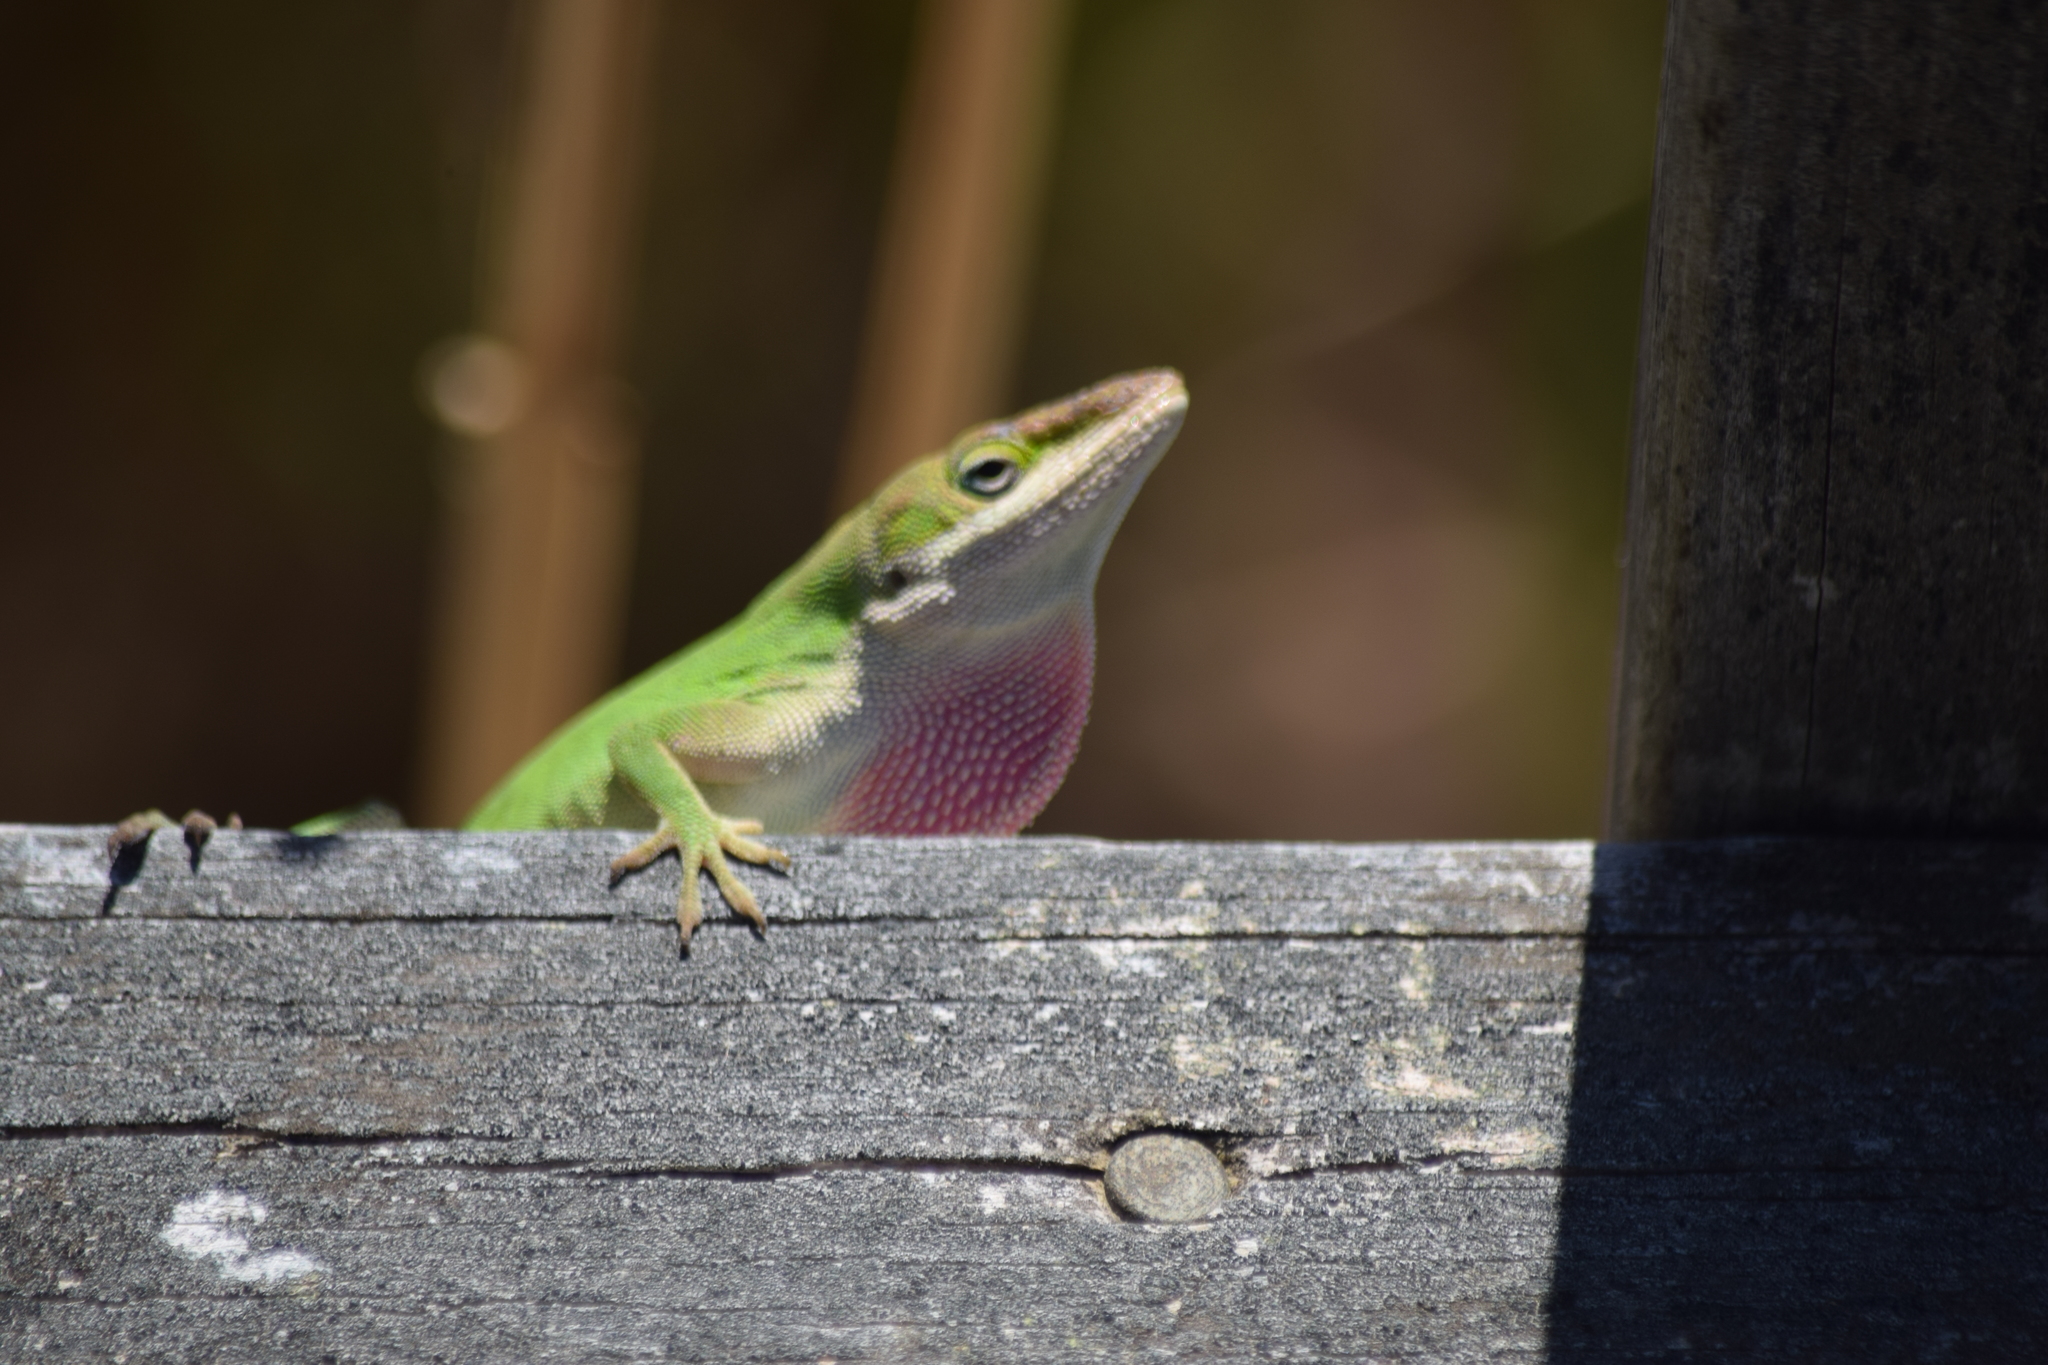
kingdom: Animalia
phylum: Chordata
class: Squamata
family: Dactyloidae
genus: Anolis
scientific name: Anolis carolinensis
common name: Green anole
